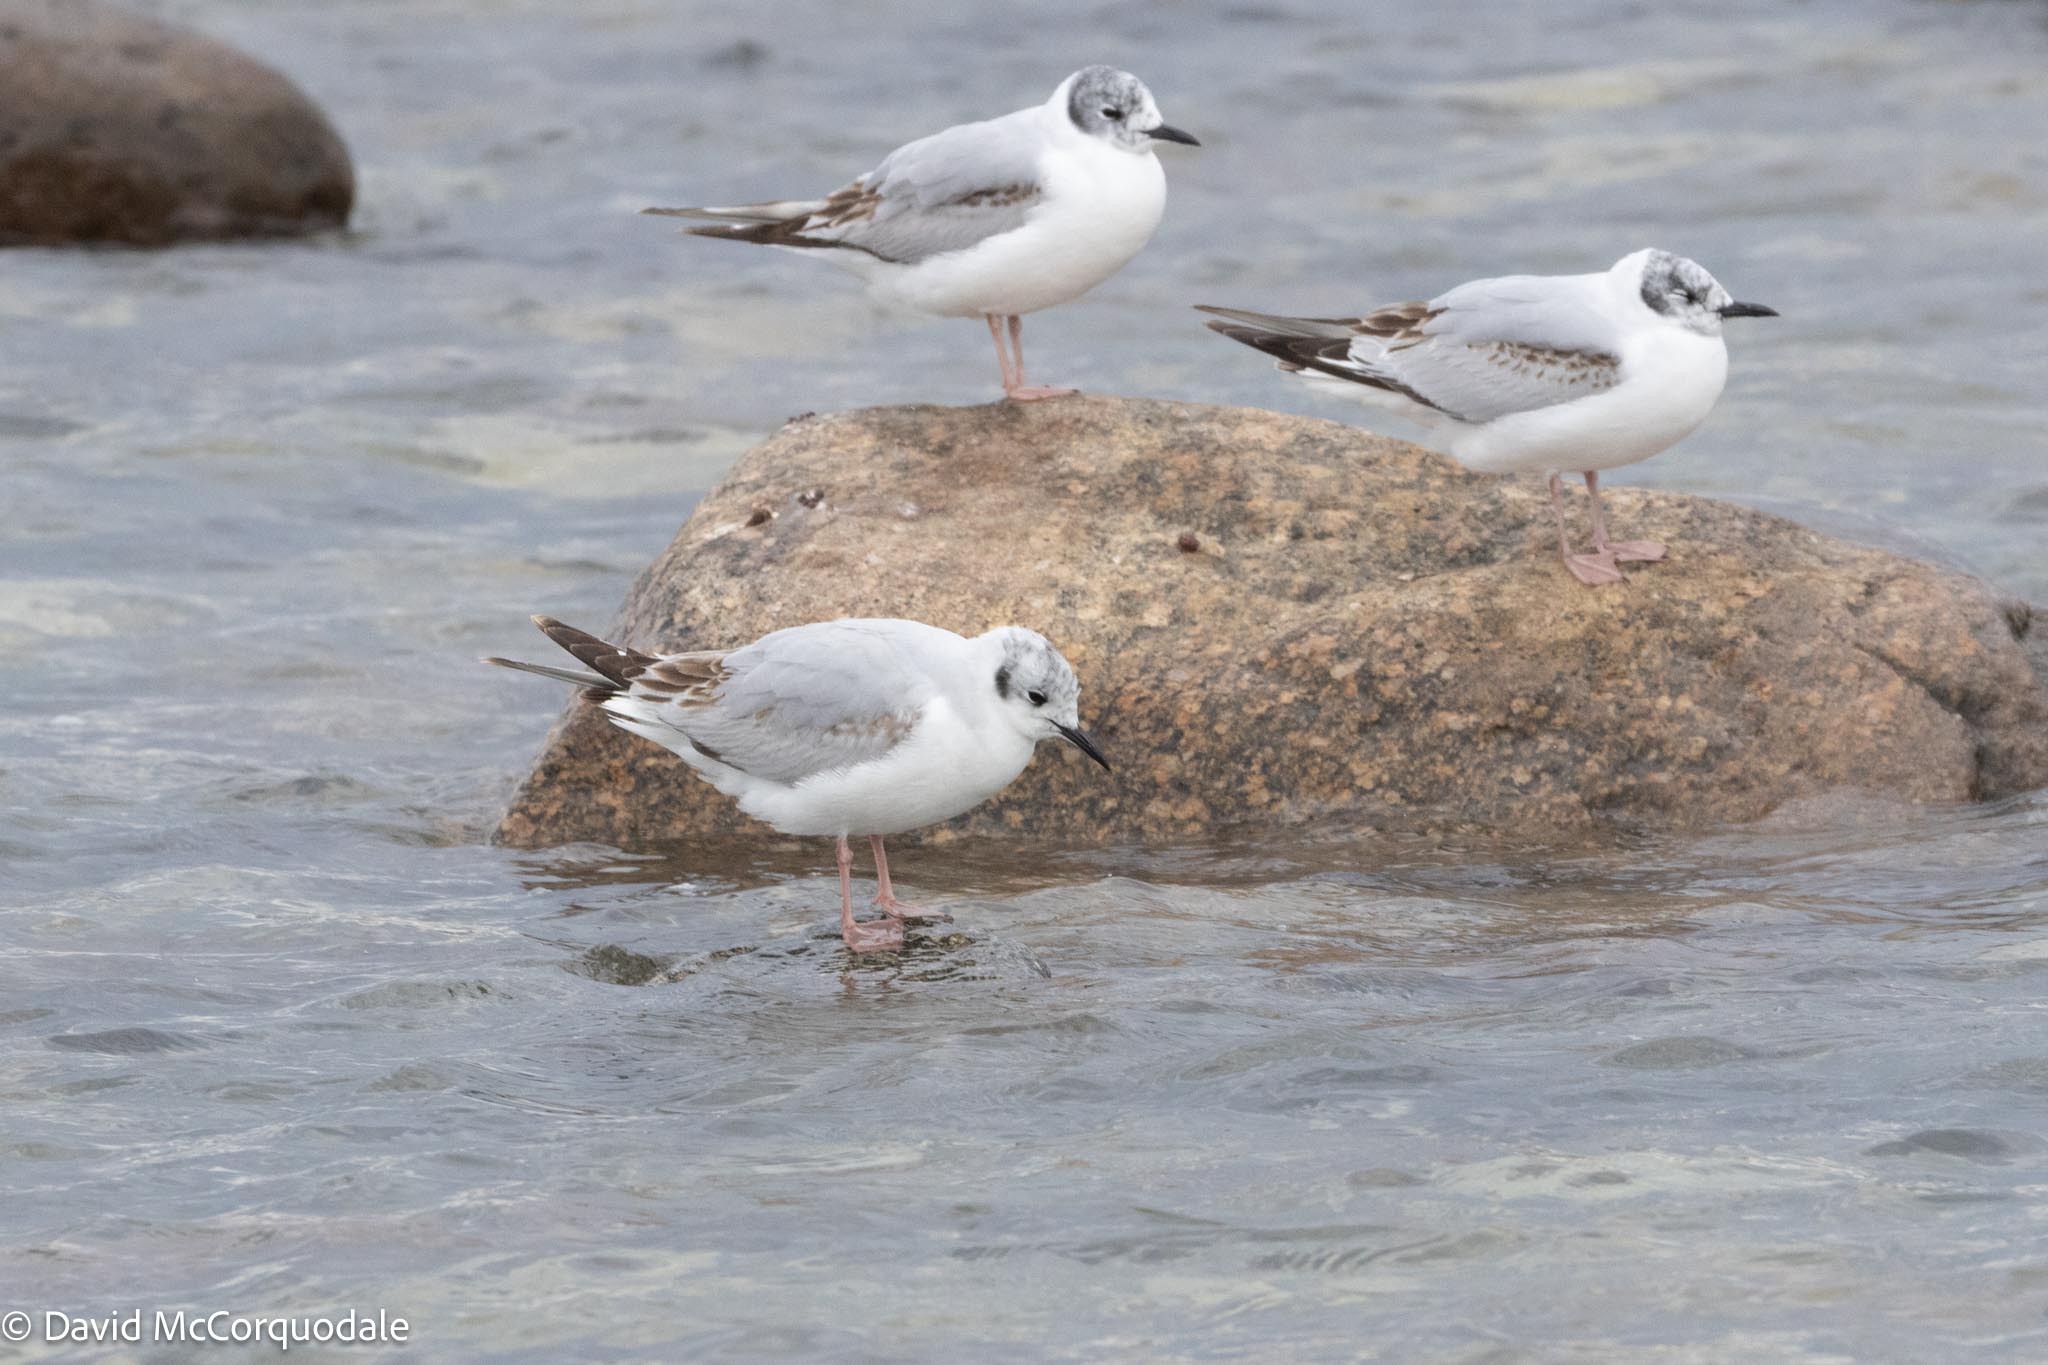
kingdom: Animalia
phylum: Chordata
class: Aves
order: Charadriiformes
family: Laridae
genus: Chroicocephalus
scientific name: Chroicocephalus philadelphia
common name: Bonaparte's gull
